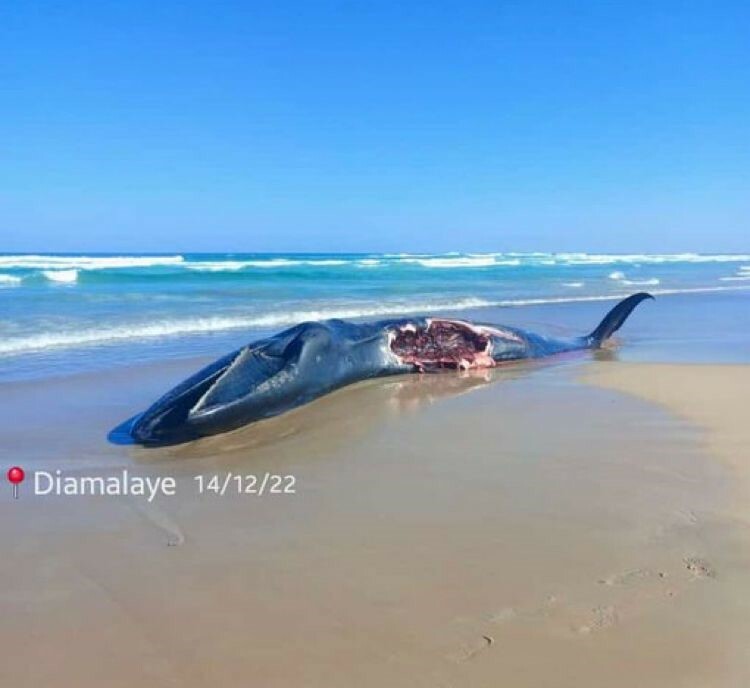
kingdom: Animalia
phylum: Chordata
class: Mammalia
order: Cetacea
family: Balaenopteridae
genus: Balaenoptera
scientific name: Balaenoptera borealis
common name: Sei whale
